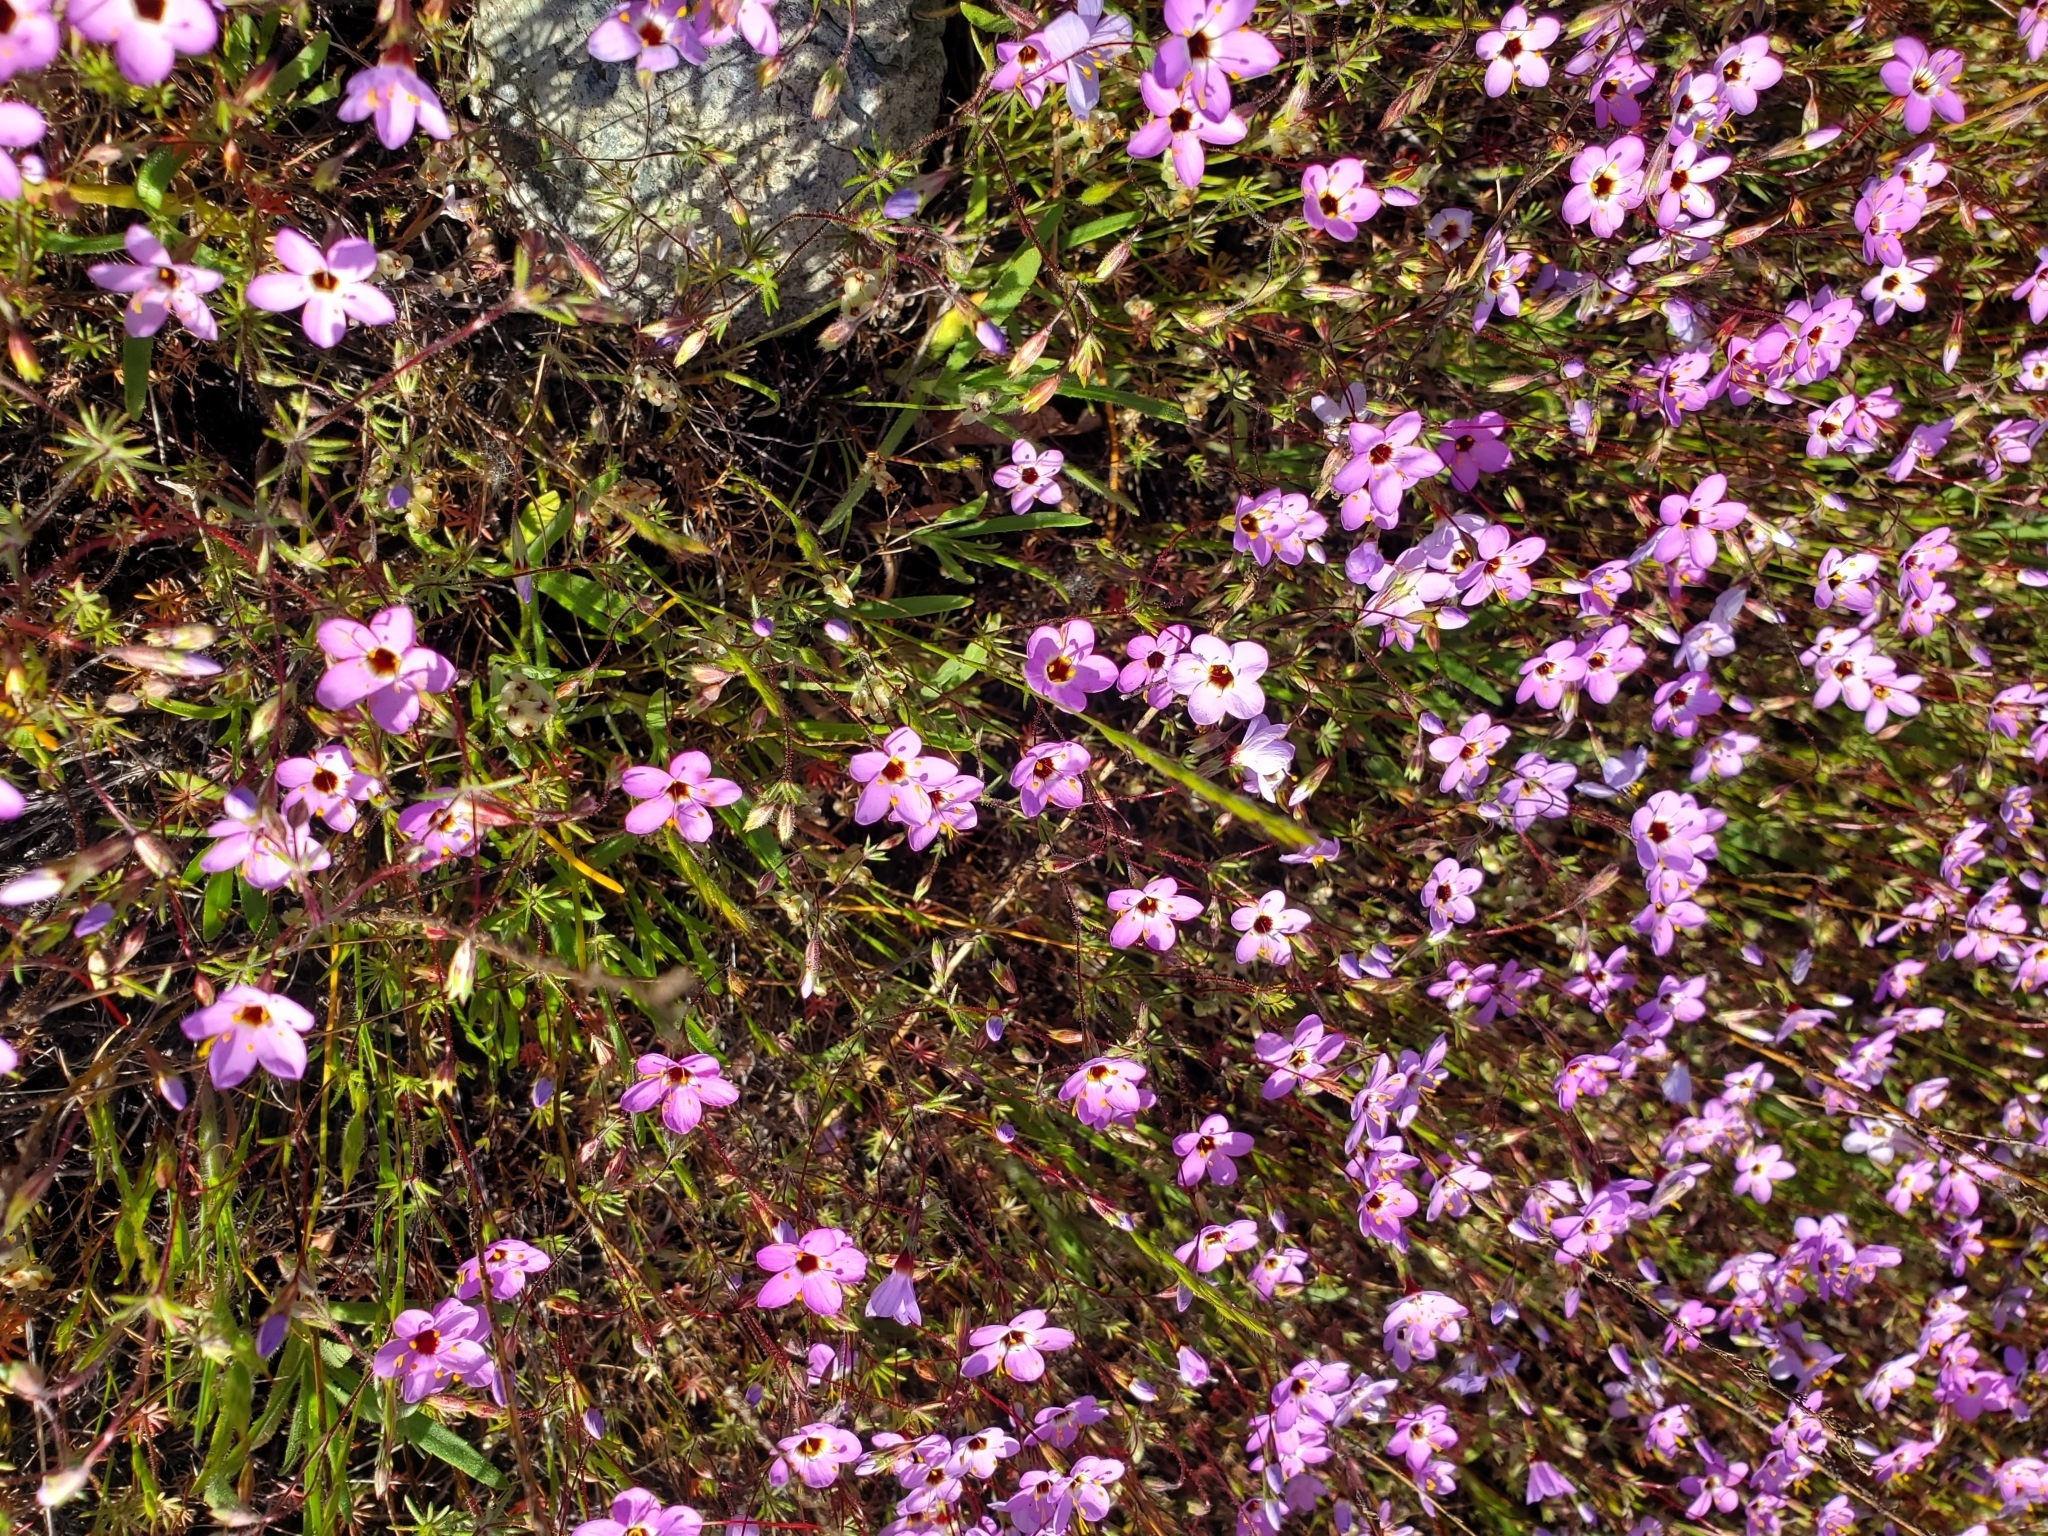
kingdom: Plantae
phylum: Tracheophyta
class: Magnoliopsida
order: Ericales
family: Polemoniaceae
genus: Leptosiphon
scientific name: Leptosiphon ambiguus
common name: Serpentine linanthus
